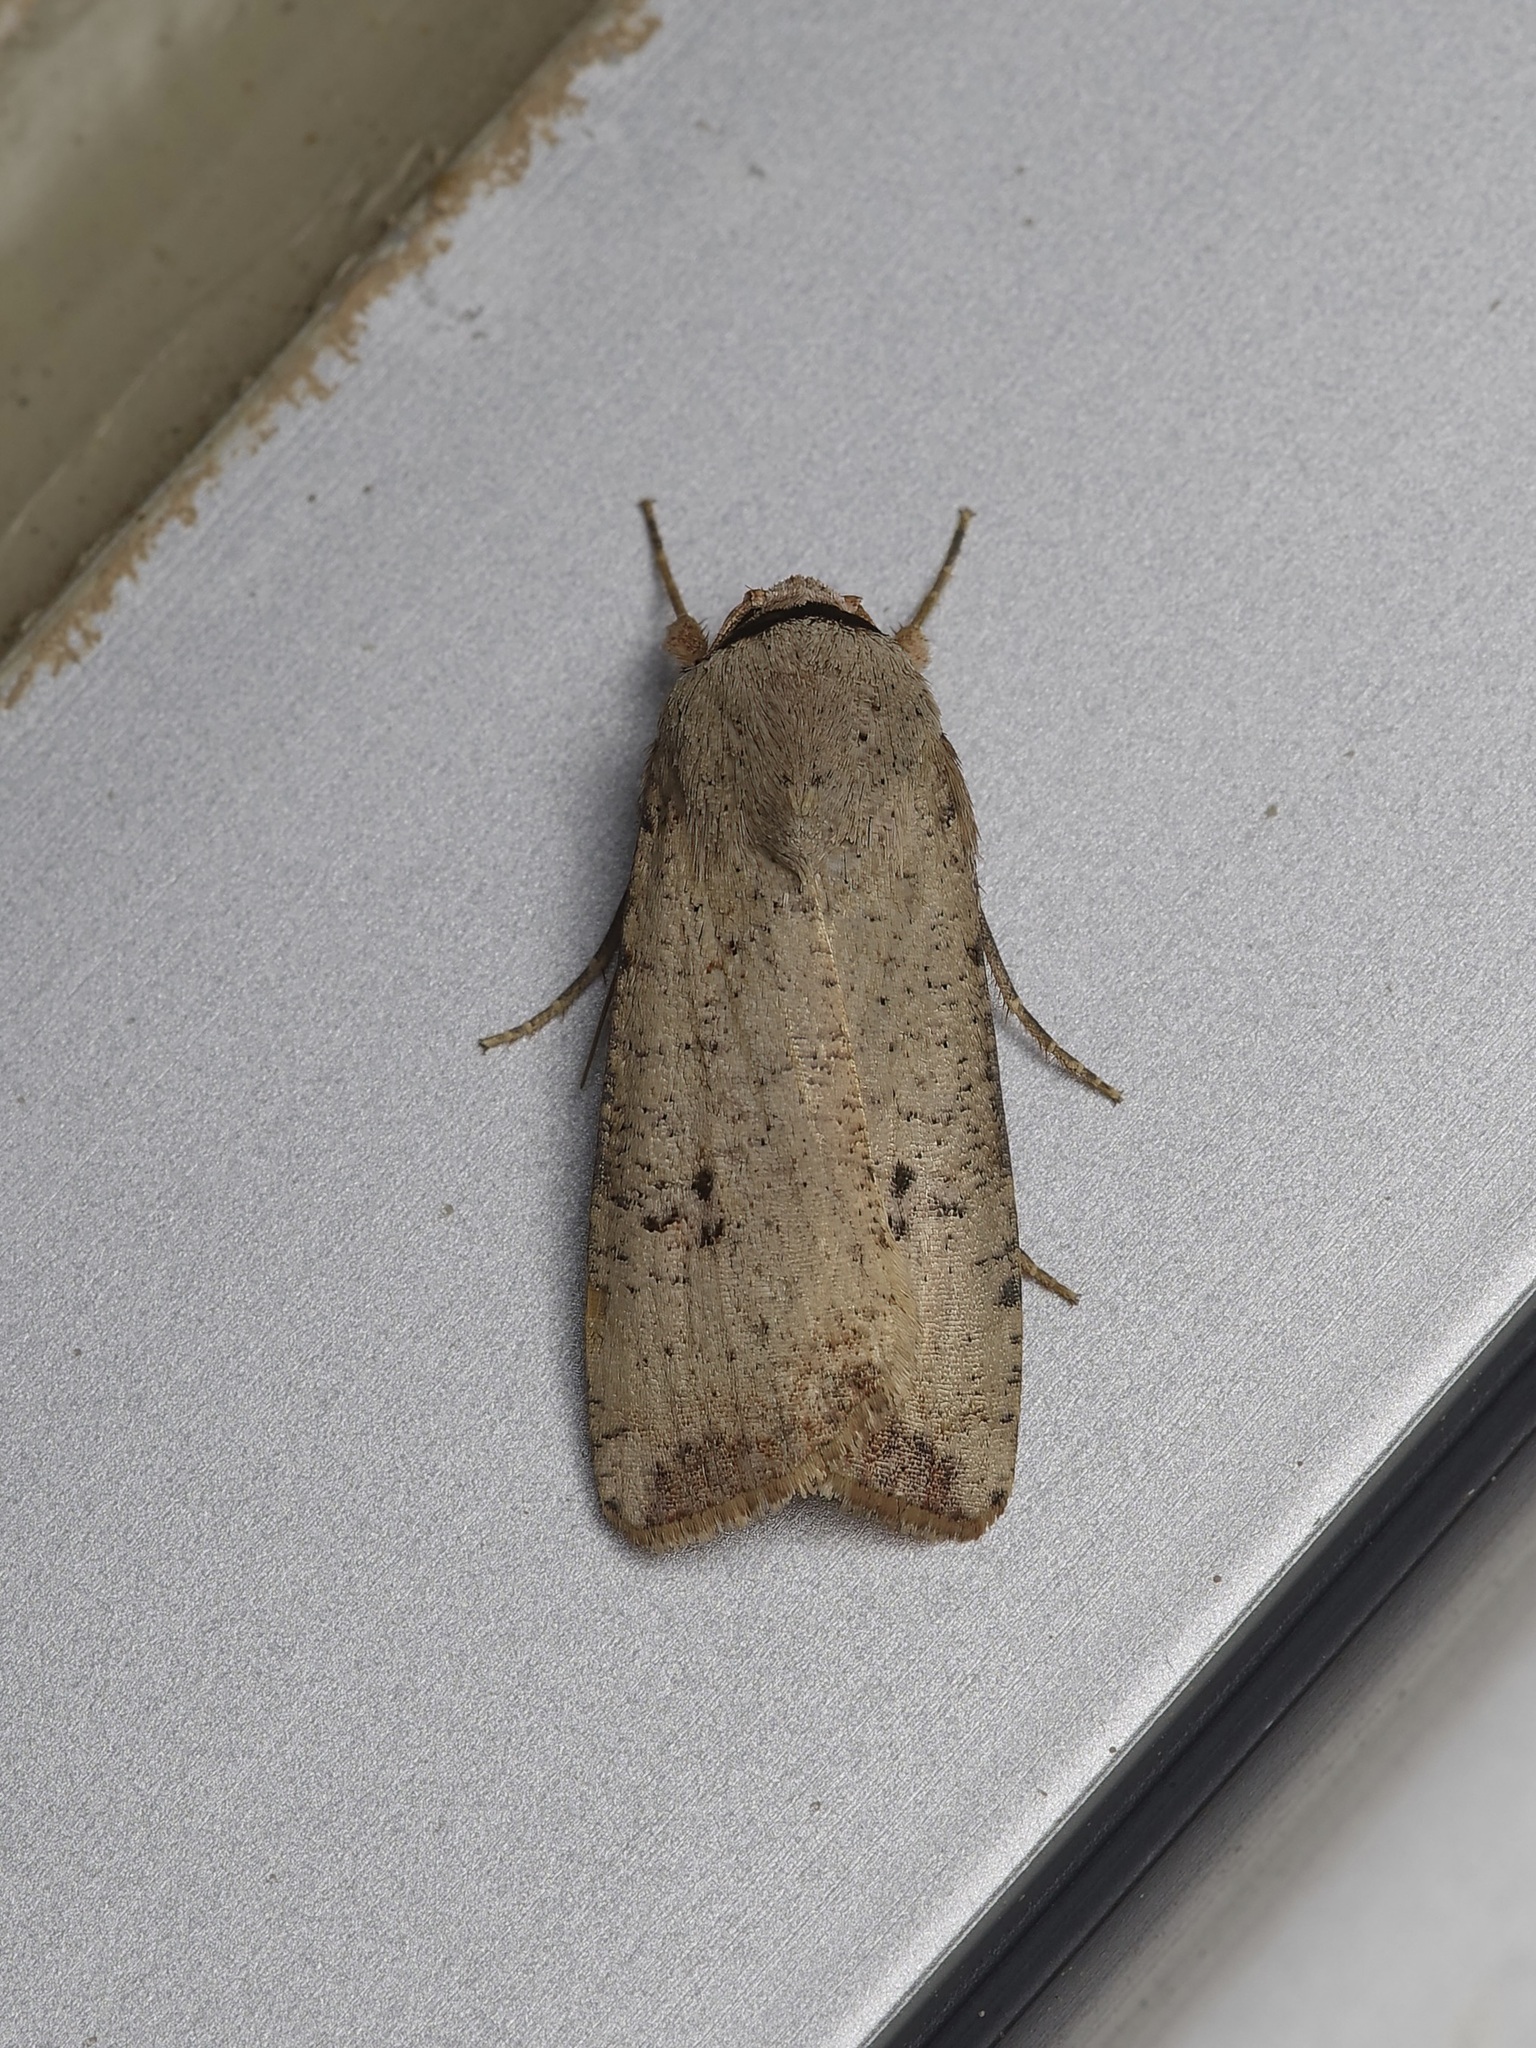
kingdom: Animalia
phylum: Arthropoda
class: Insecta
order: Lepidoptera
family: Noctuidae
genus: Anicla
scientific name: Anicla infecta
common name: Green cutworm
